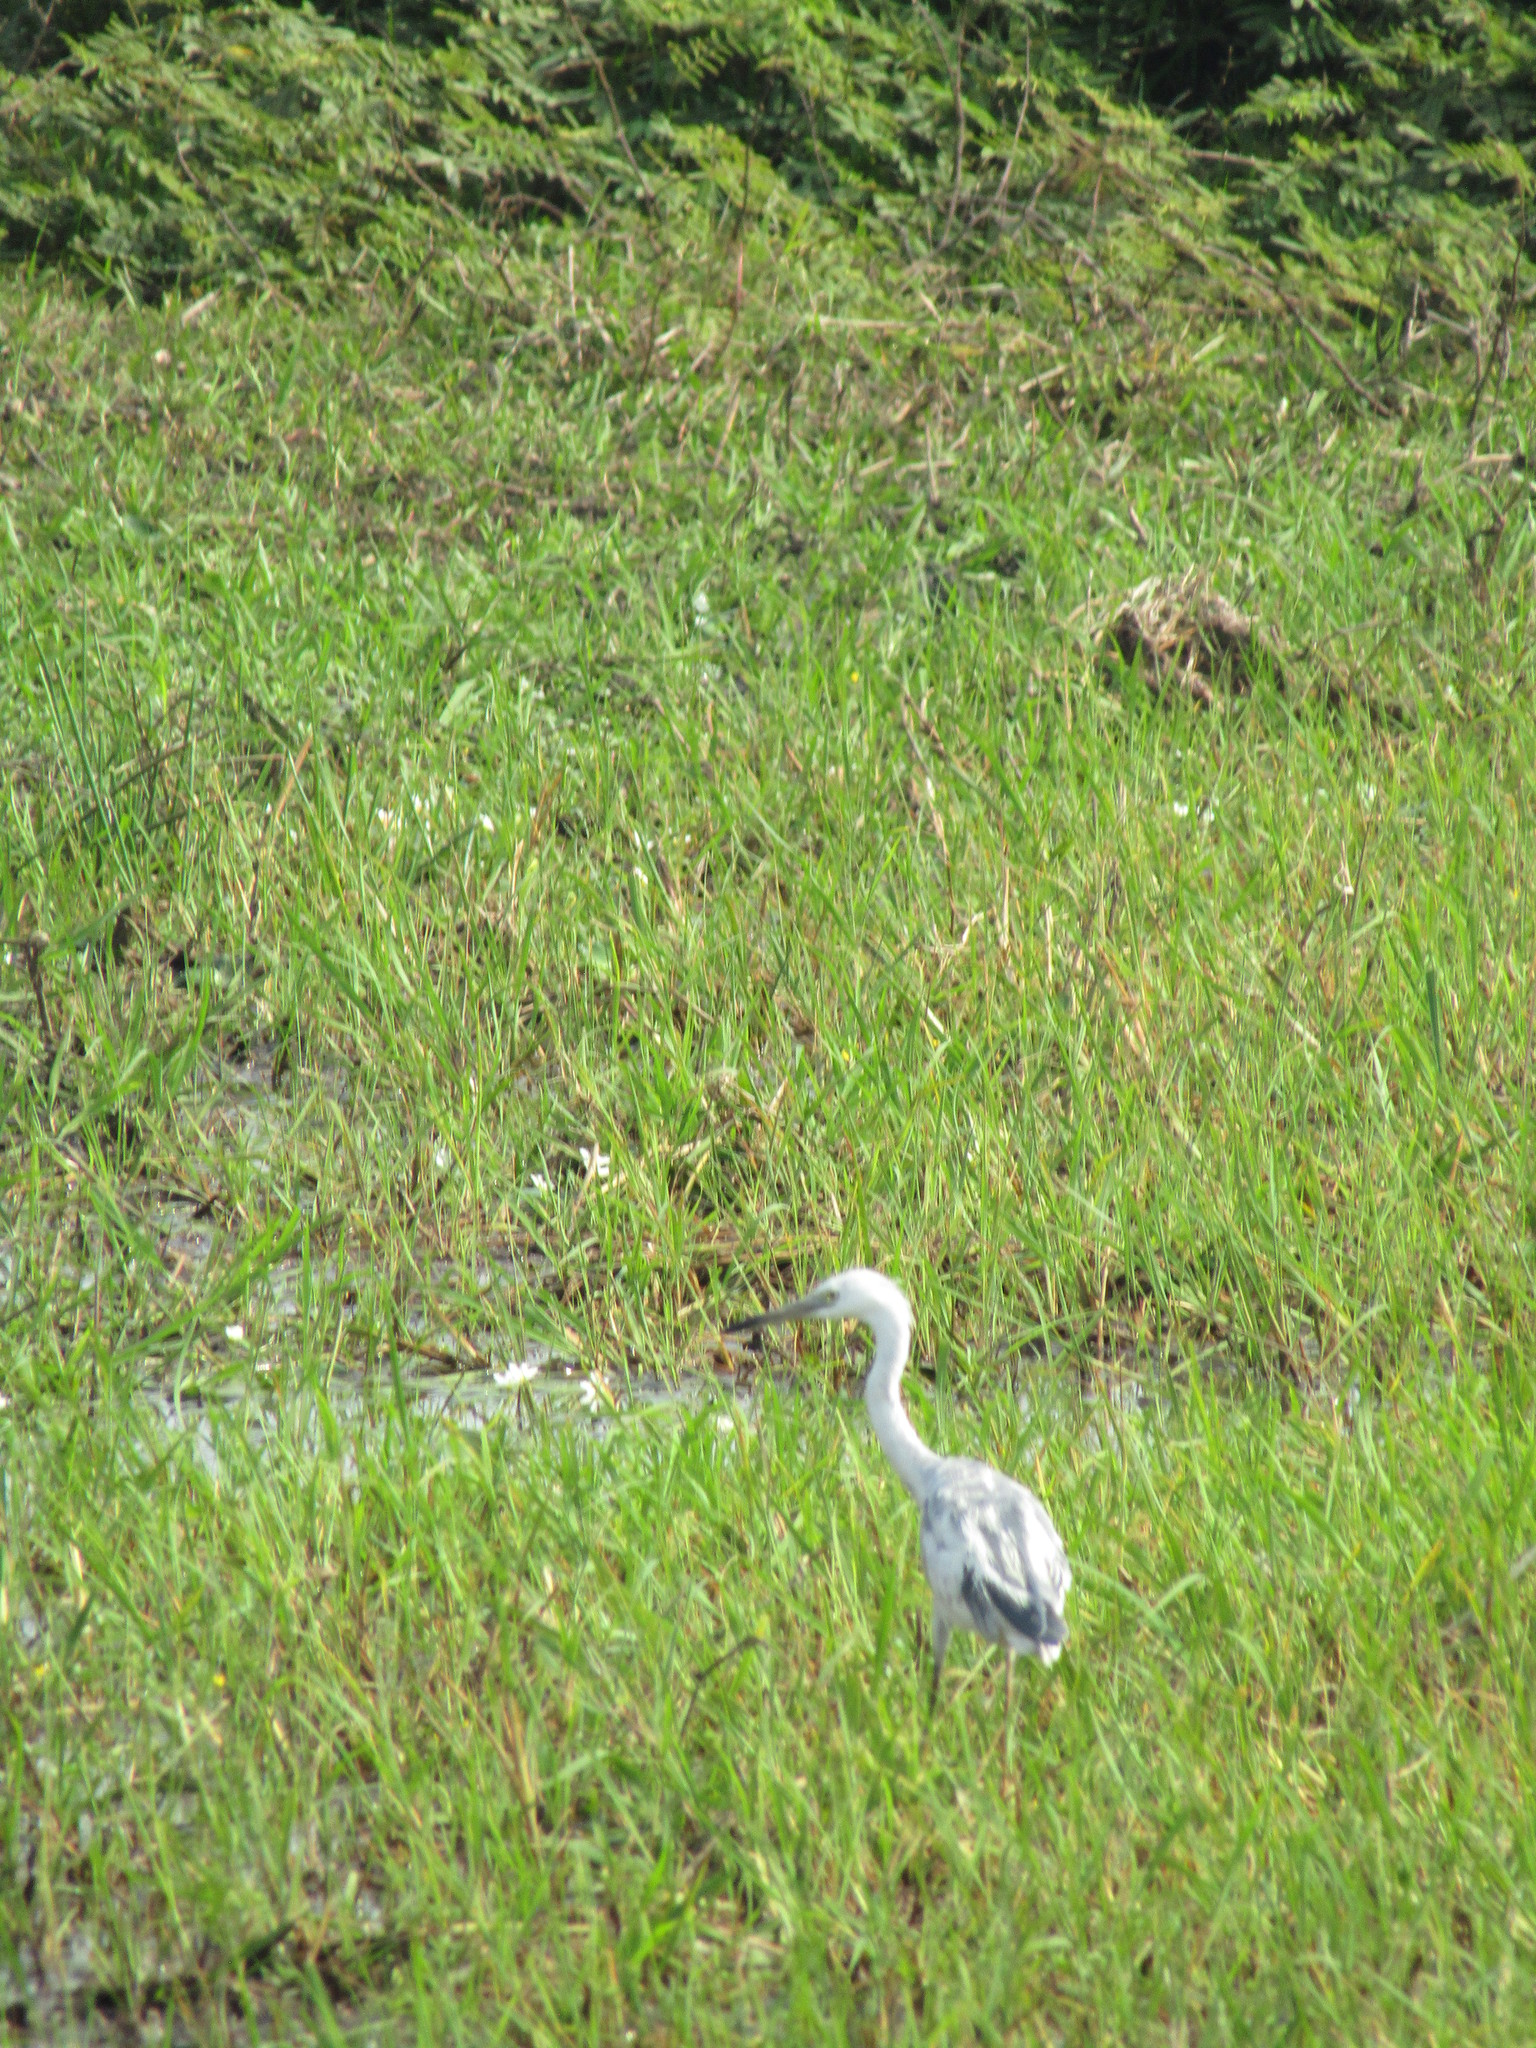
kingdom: Animalia
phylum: Chordata
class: Aves
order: Pelecaniformes
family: Ardeidae
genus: Egretta
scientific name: Egretta caerulea
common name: Little blue heron
